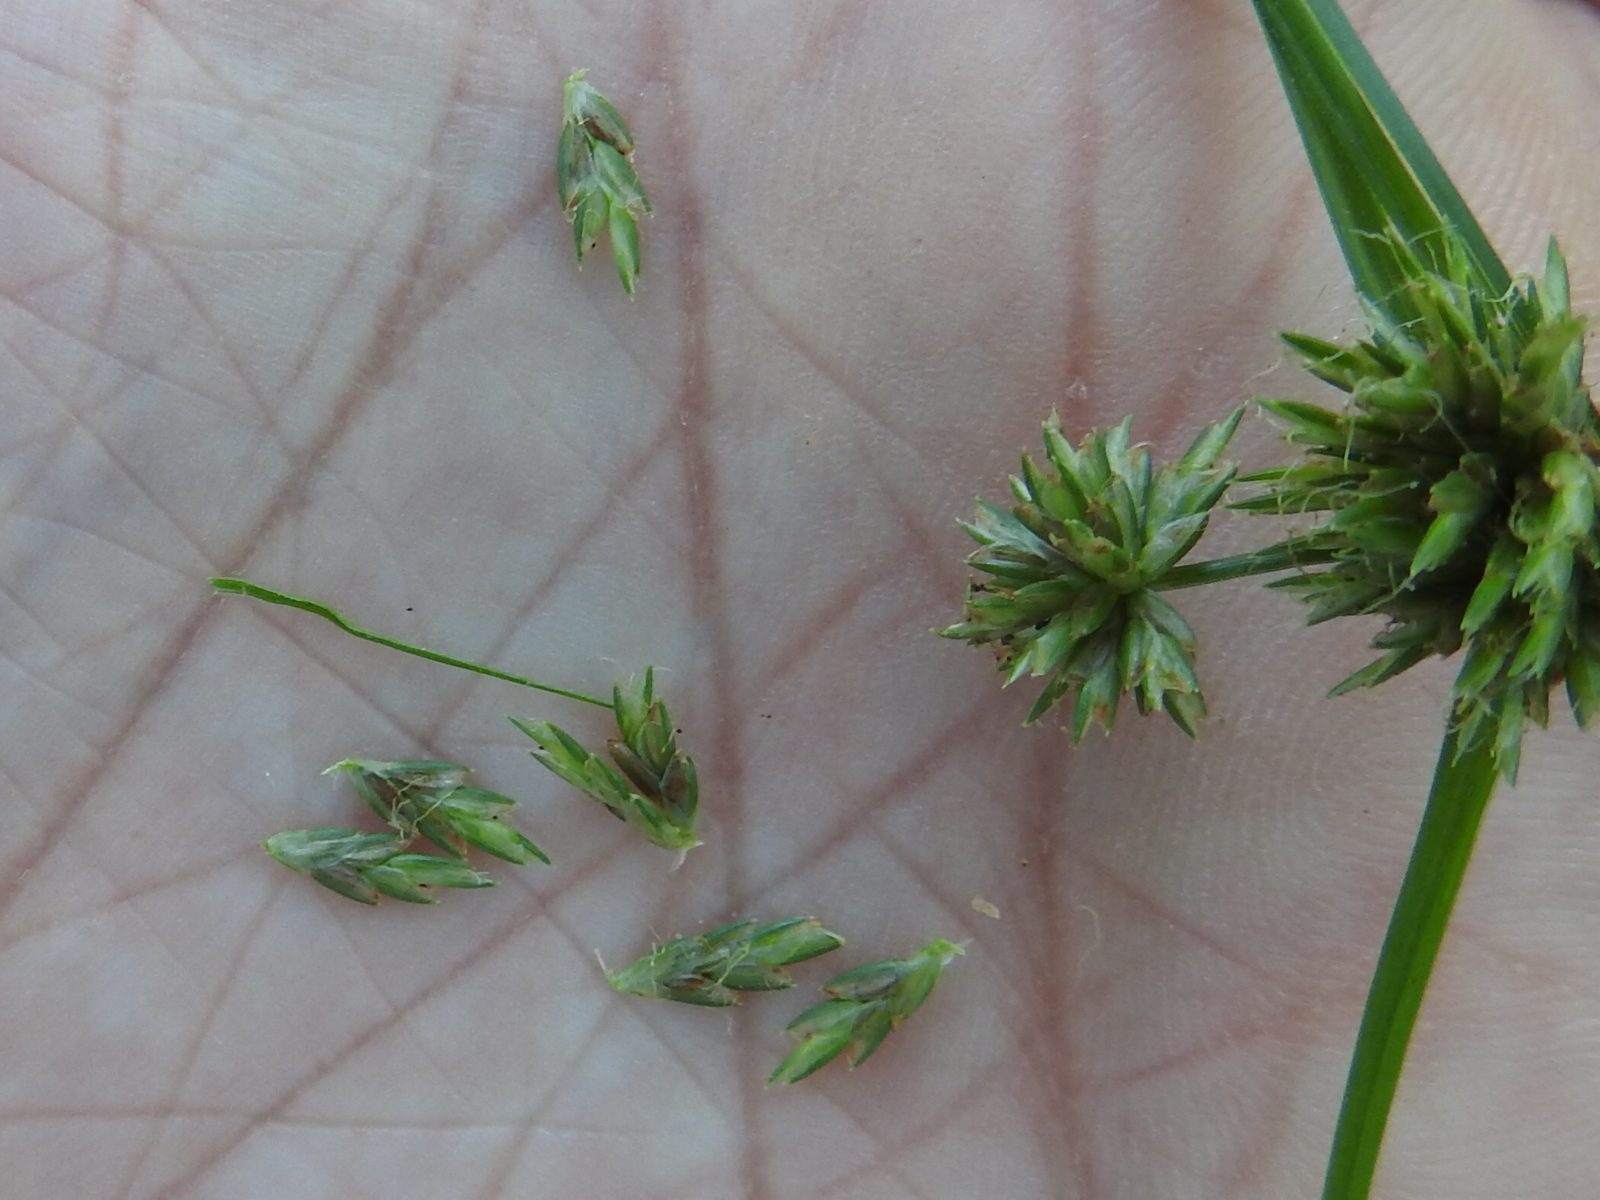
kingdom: Plantae
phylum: Tracheophyta
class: Liliopsida
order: Poales
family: Cyperaceae
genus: Cyperus
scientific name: Cyperus lupulinus
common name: Great plains flatsedge
